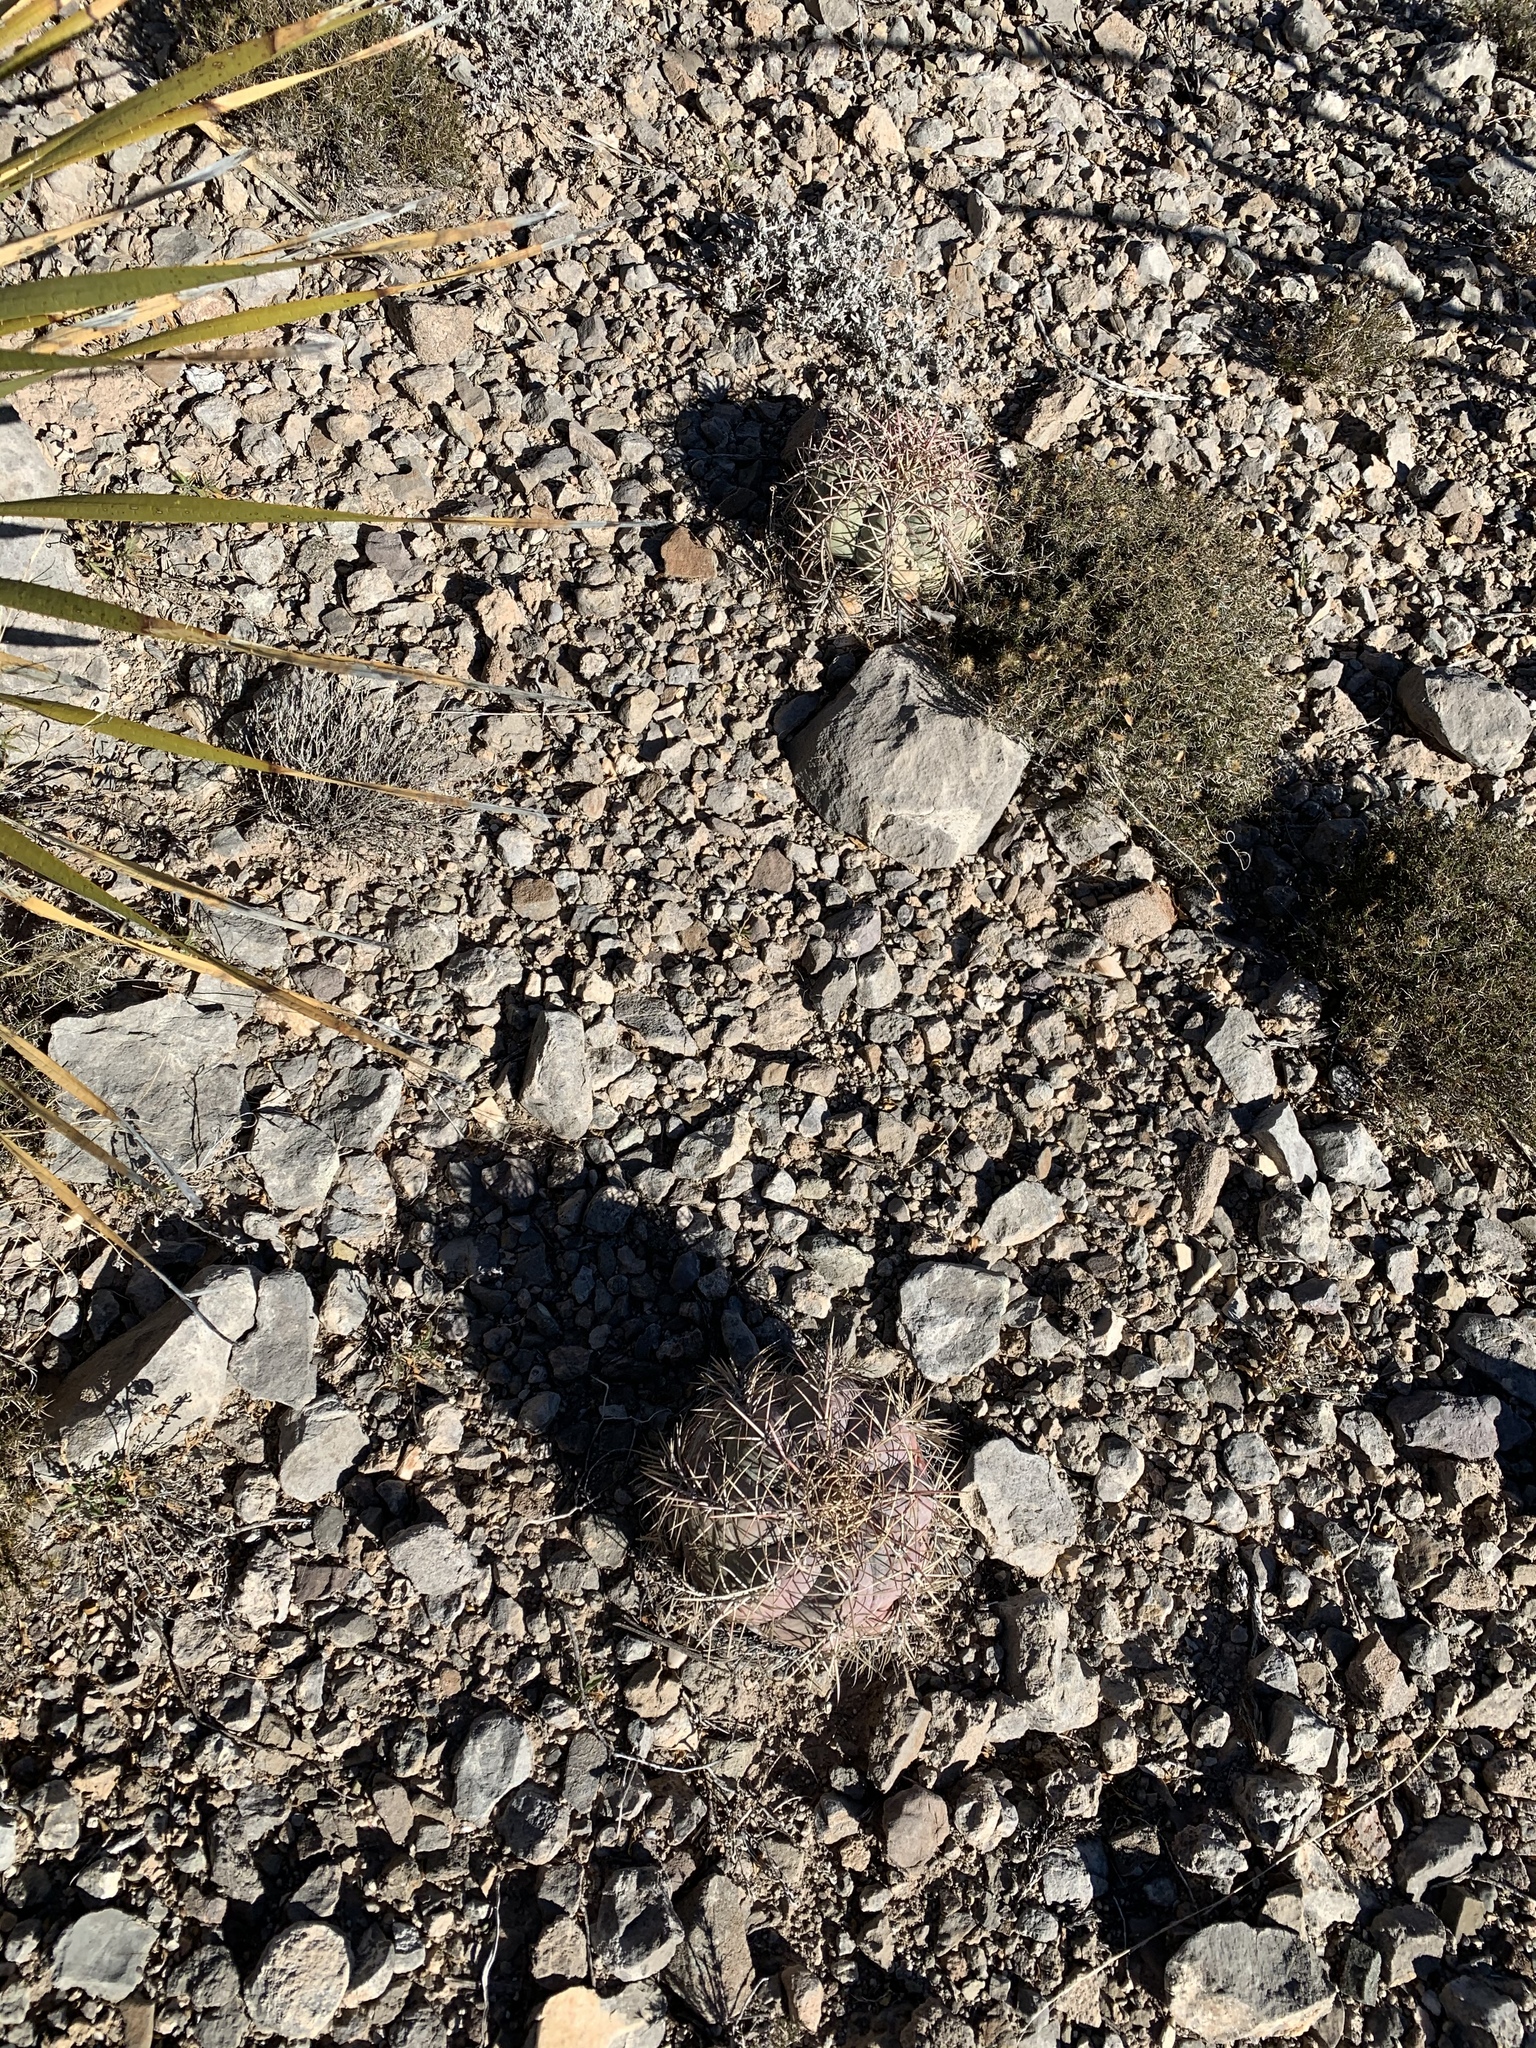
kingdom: Plantae
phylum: Tracheophyta
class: Magnoliopsida
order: Caryophyllales
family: Cactaceae
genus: Echinocactus
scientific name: Echinocactus horizonthalonius
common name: Devilshead
